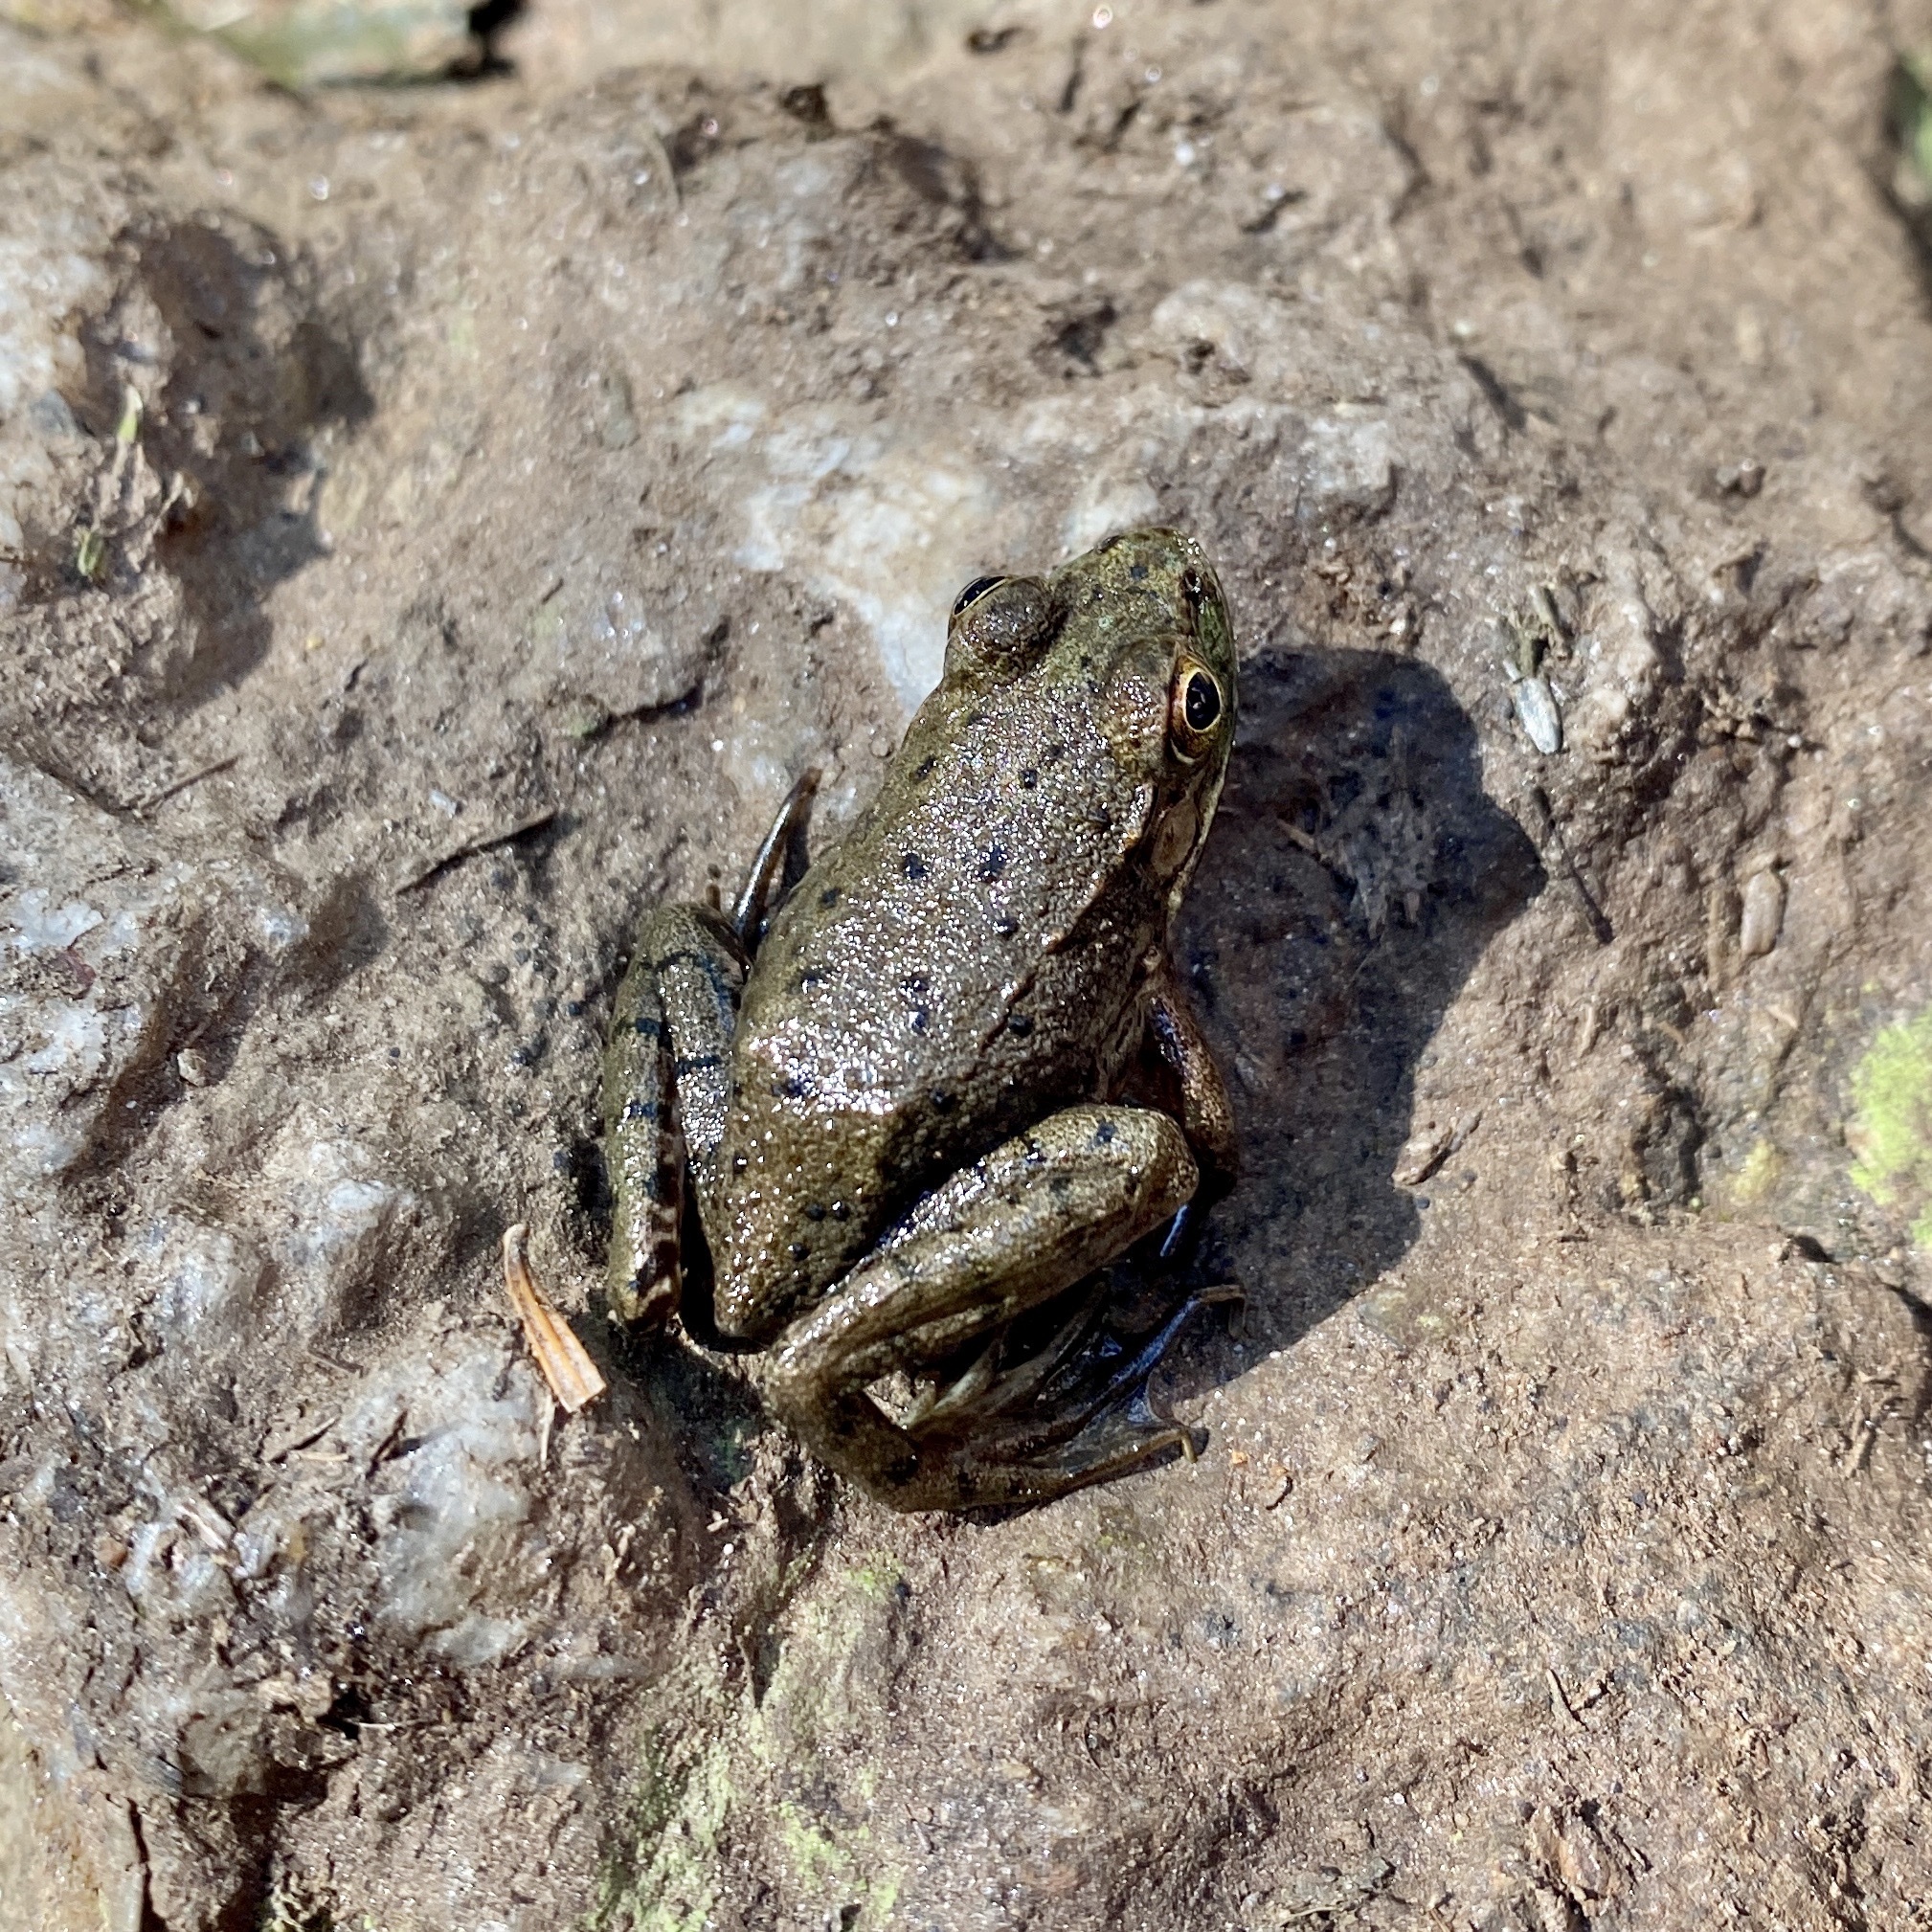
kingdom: Animalia
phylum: Chordata
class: Amphibia
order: Anura
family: Ranidae
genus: Lithobates
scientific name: Lithobates clamitans
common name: Green frog
